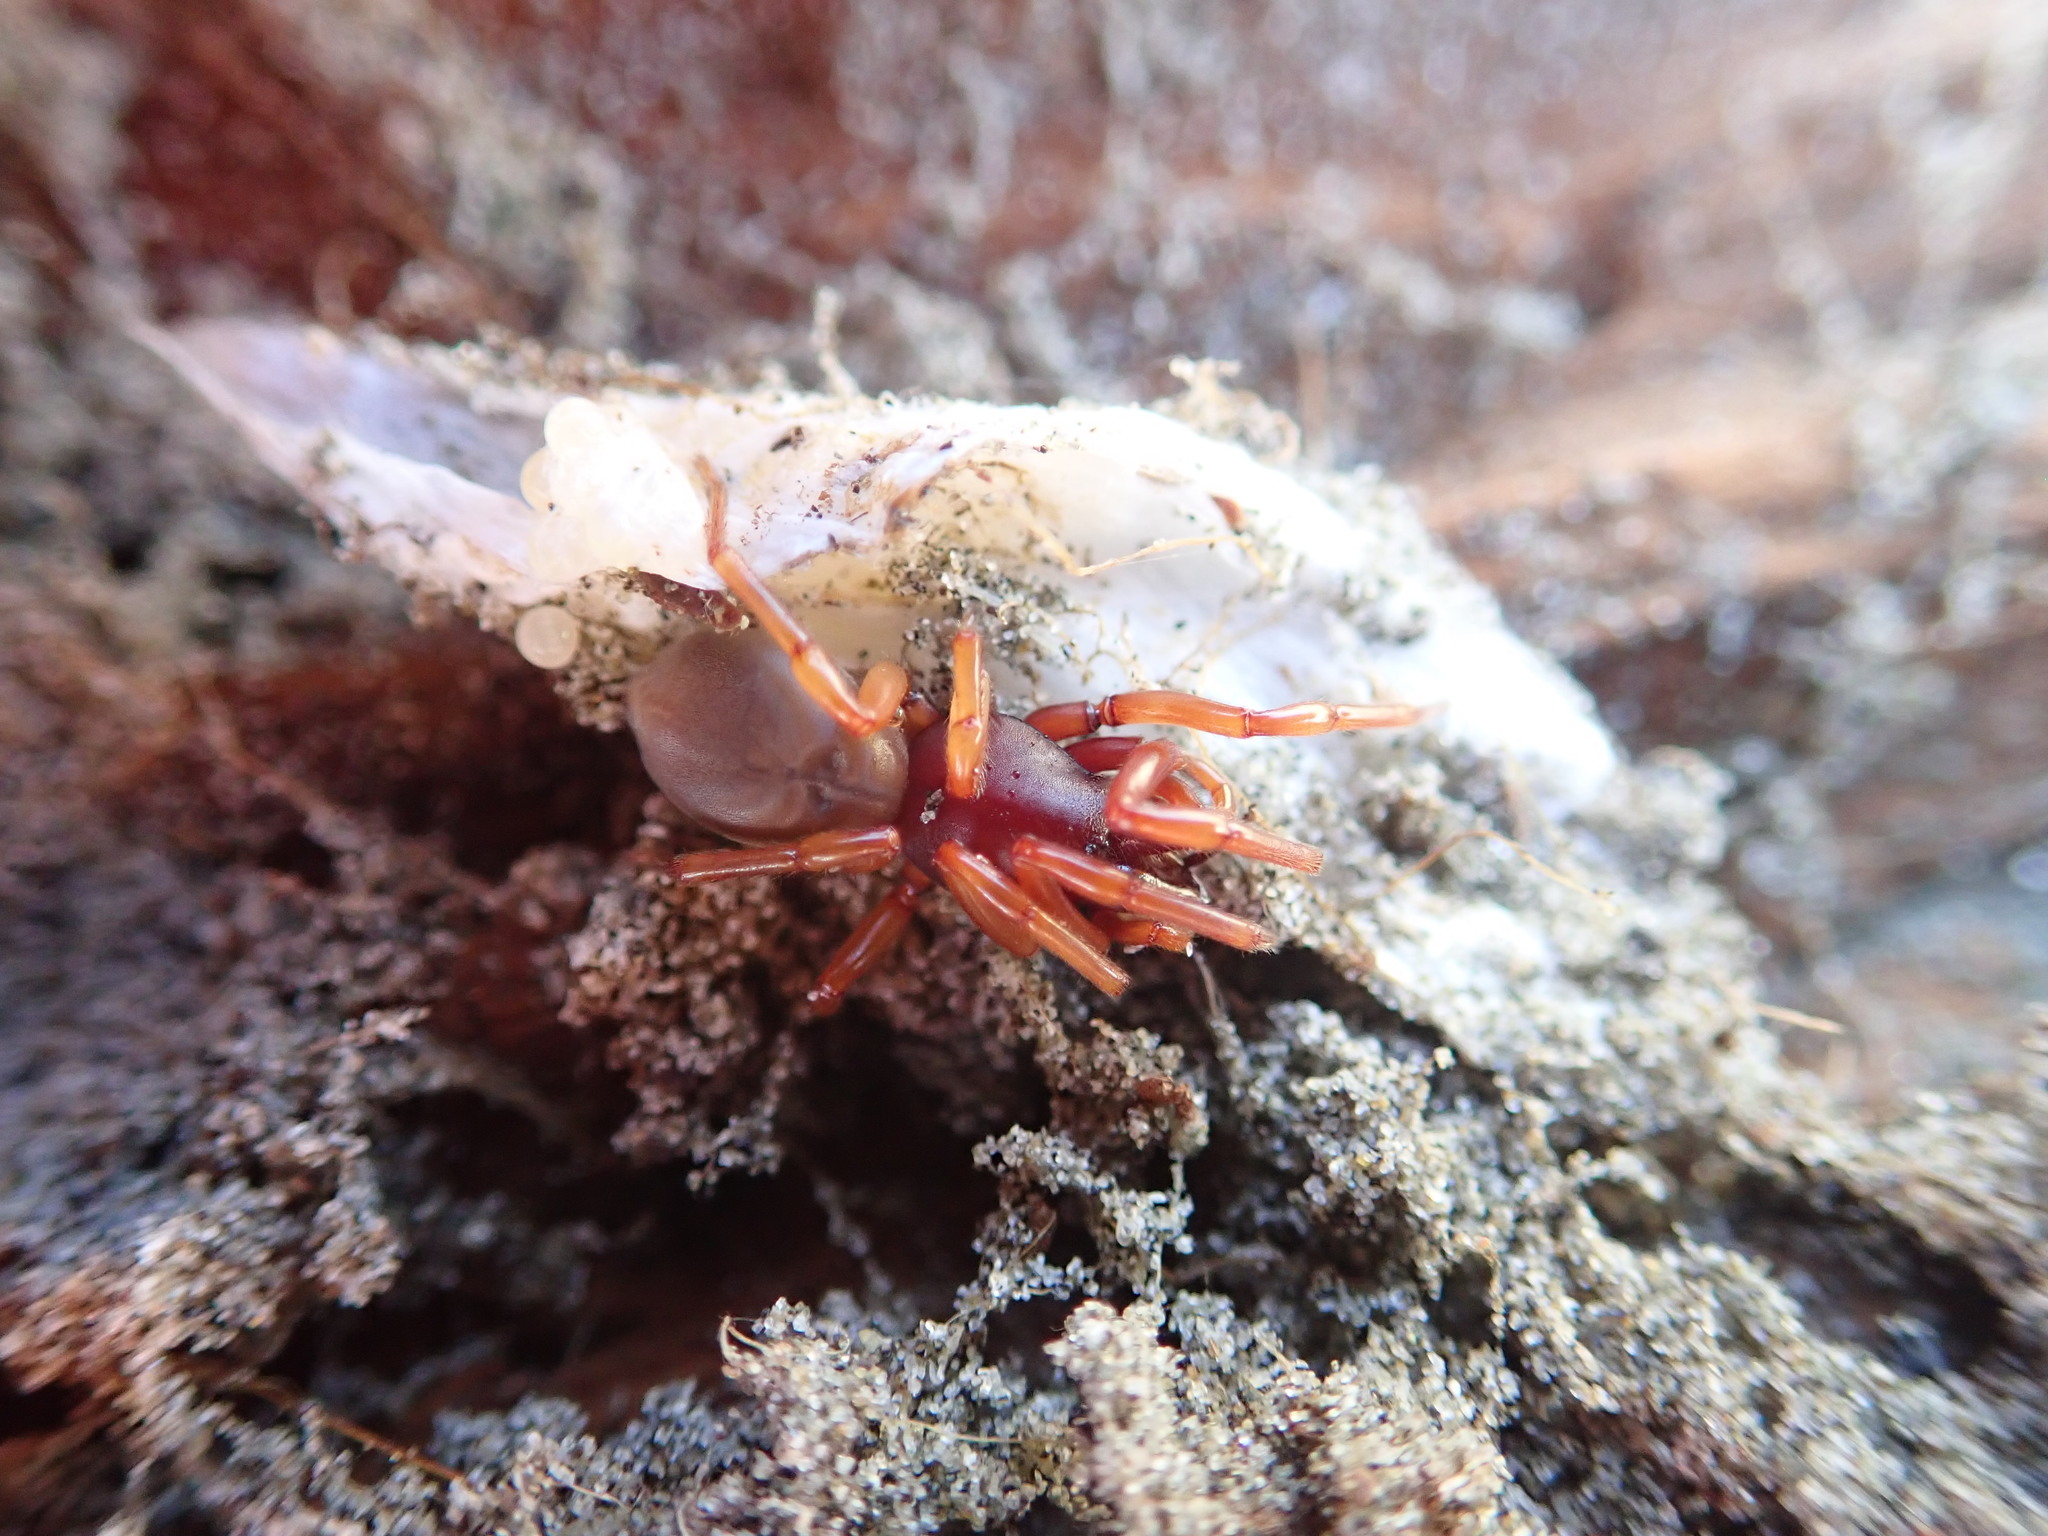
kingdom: Animalia
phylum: Arthropoda
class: Arachnida
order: Araneae
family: Dysderidae
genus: Dysdera
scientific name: Dysdera crocata
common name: Woodlouse spider
